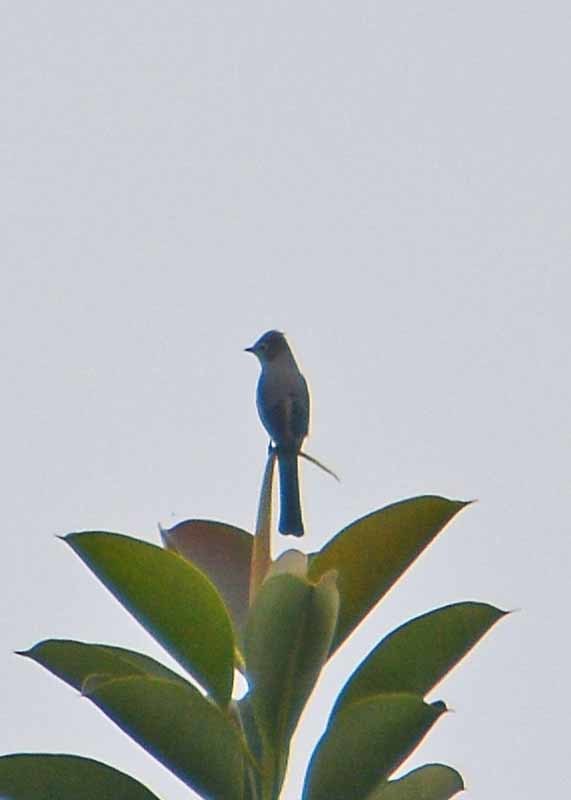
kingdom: Animalia
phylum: Chordata
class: Aves
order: Passeriformes
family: Ptilogonatidae
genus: Ptilogonys
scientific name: Ptilogonys cinereus
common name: Gray silky-flycatcher
